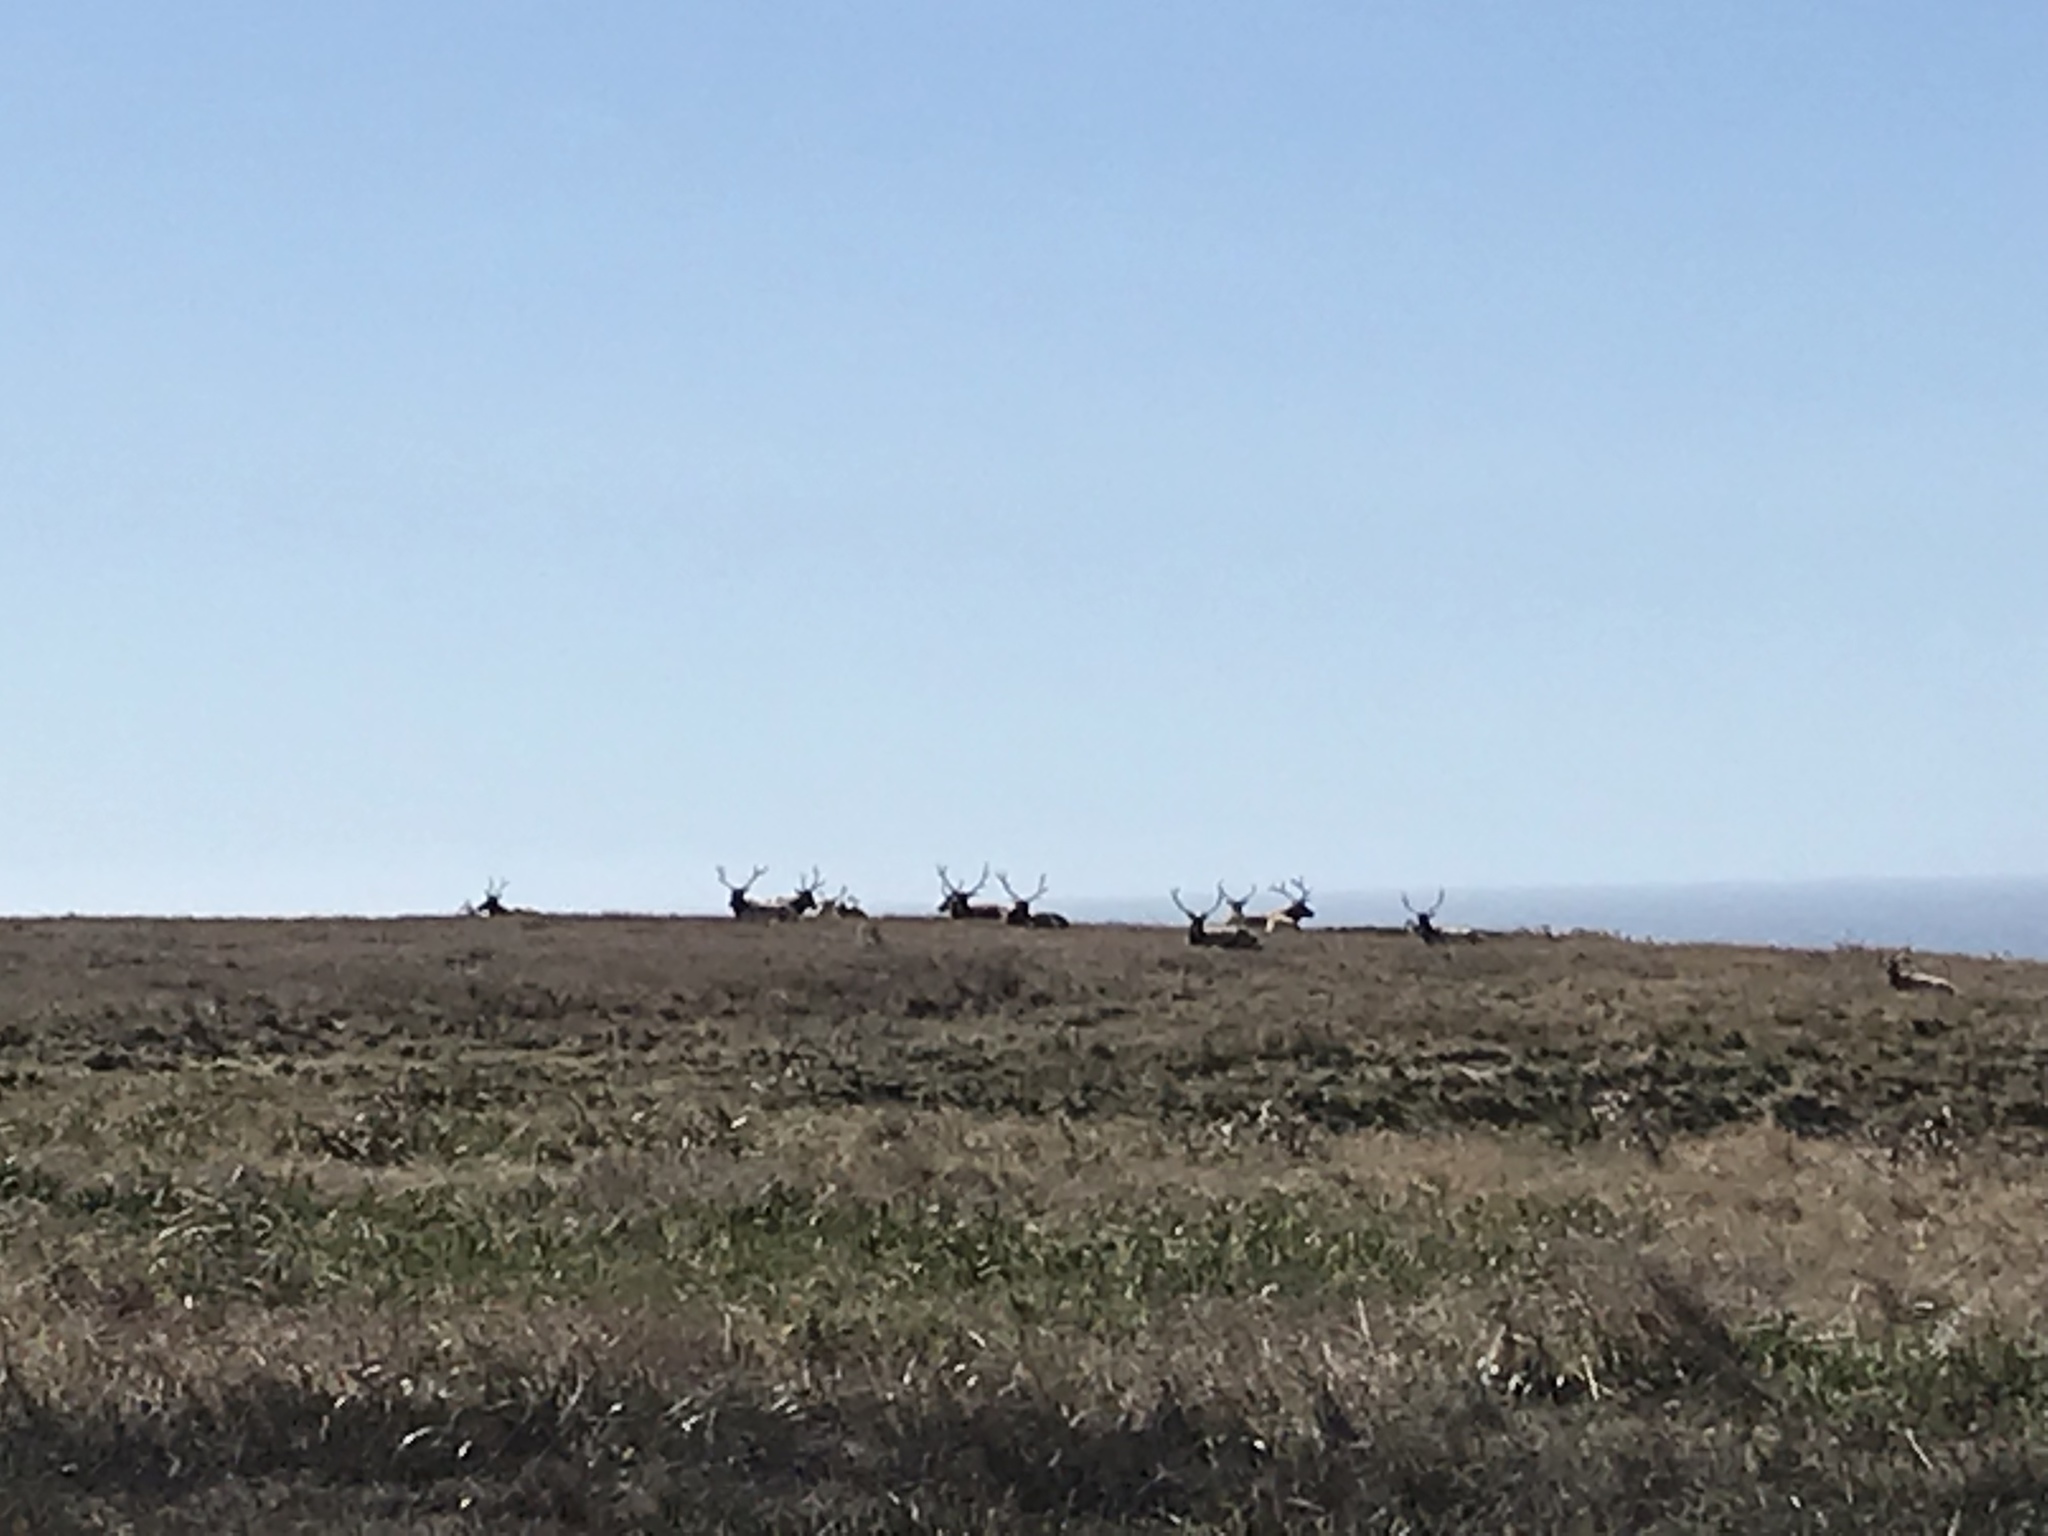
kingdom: Animalia
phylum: Chordata
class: Mammalia
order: Artiodactyla
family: Cervidae
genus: Cervus
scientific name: Cervus elaphus
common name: Red deer
